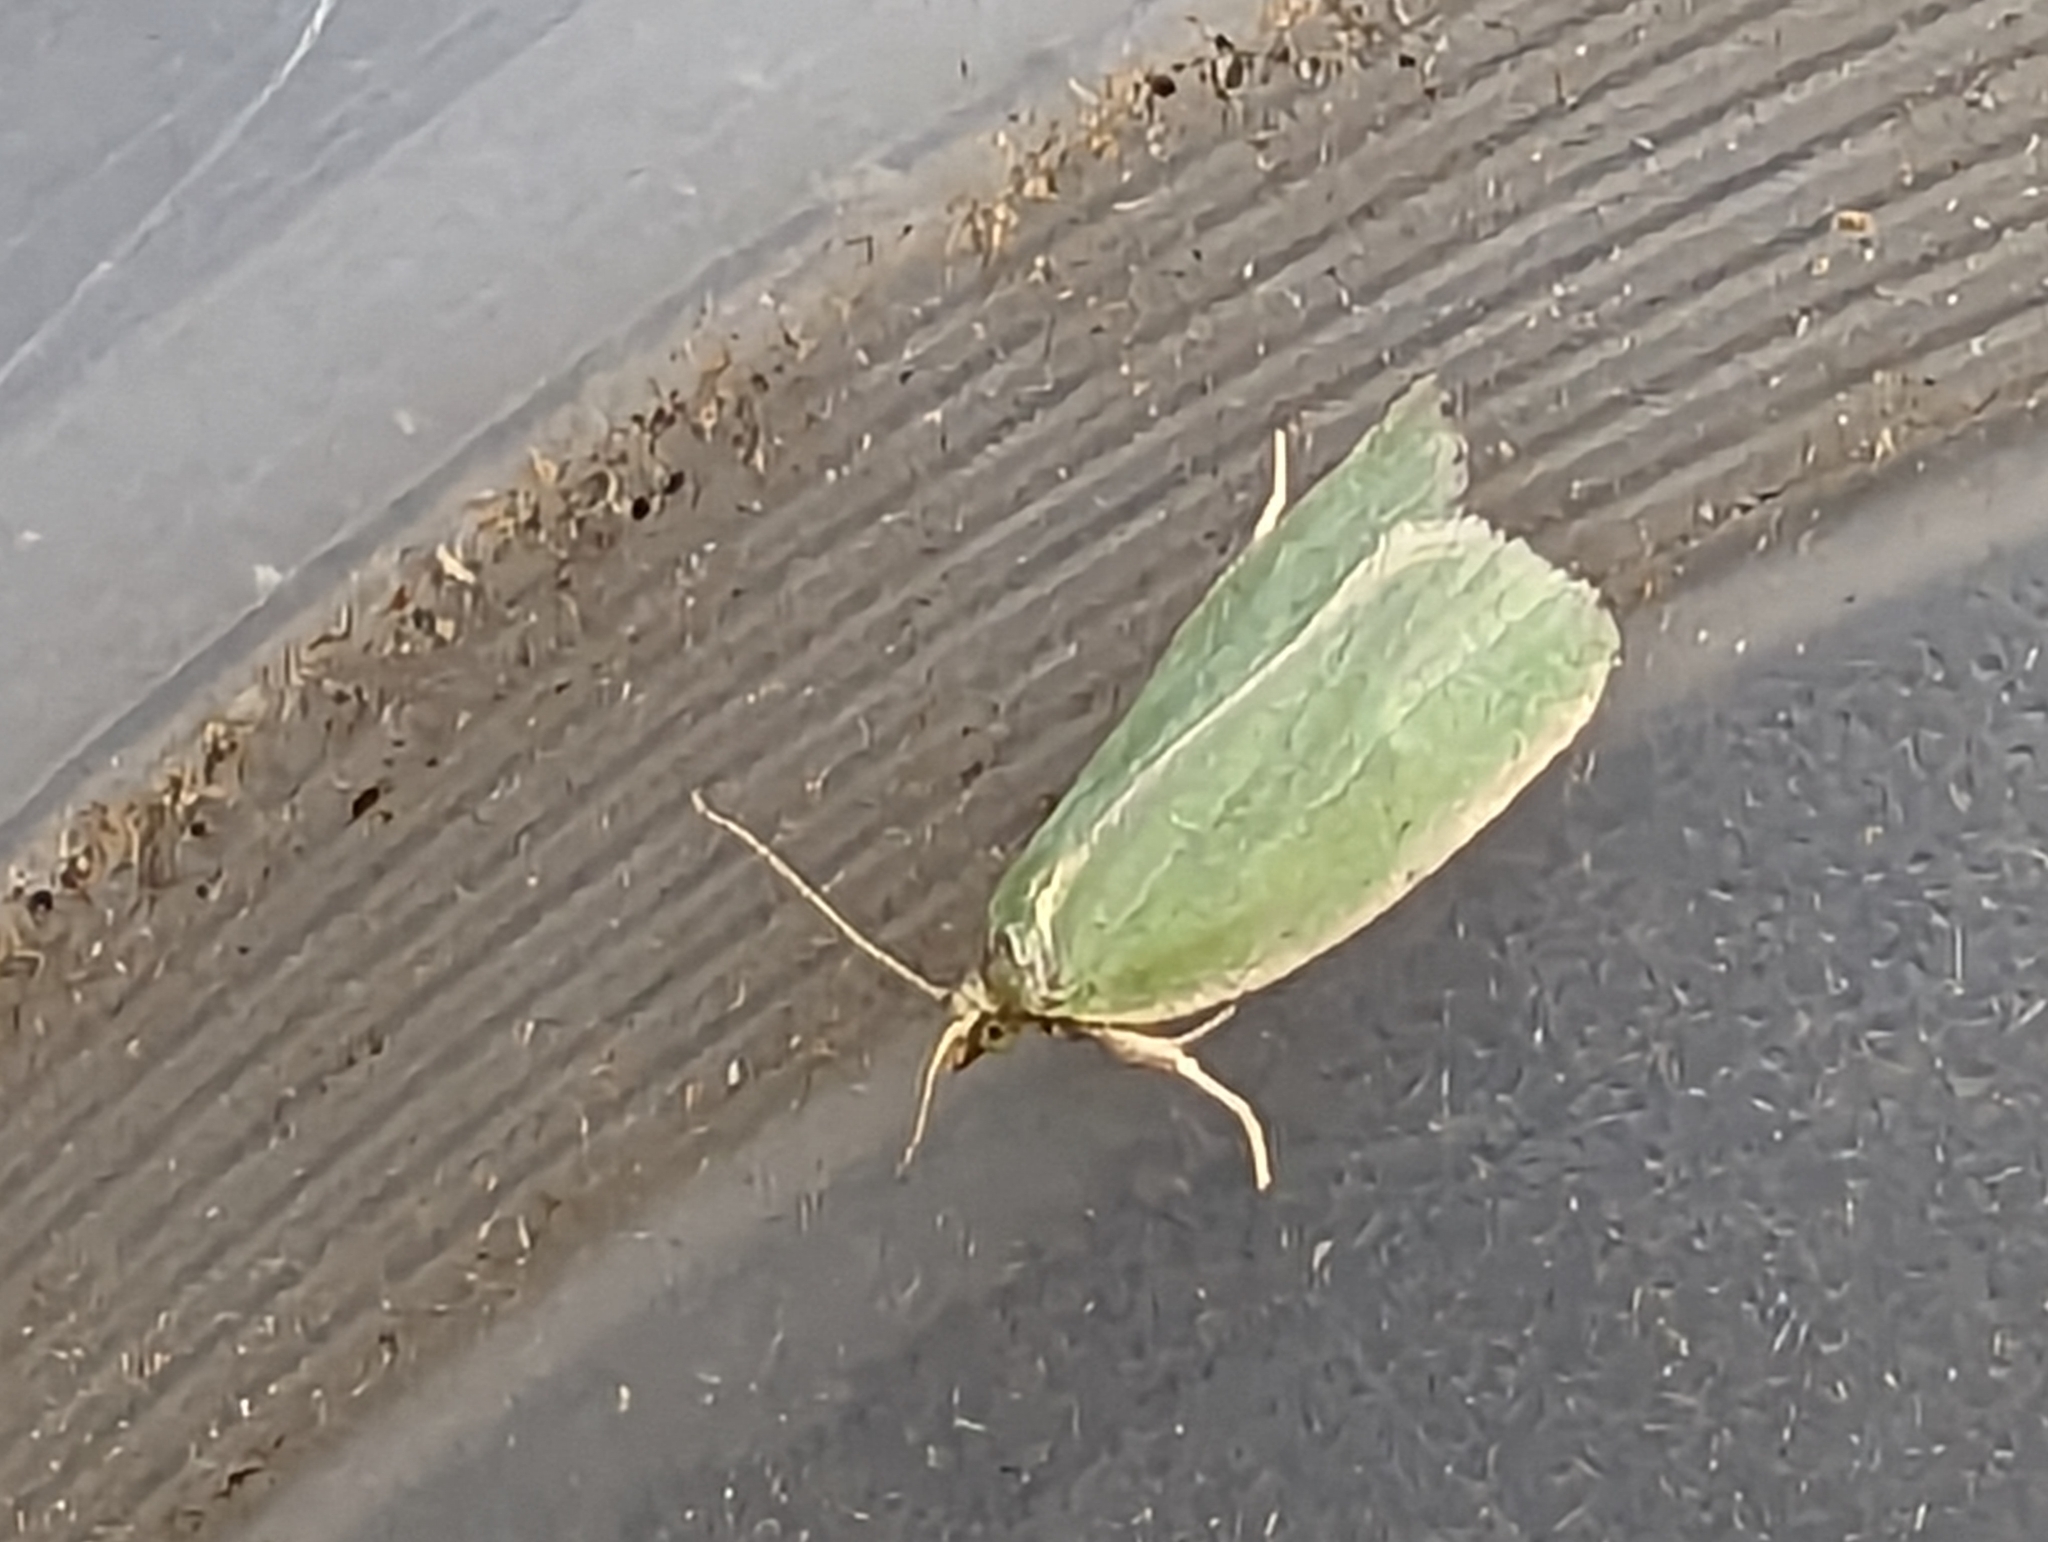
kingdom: Animalia
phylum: Arthropoda
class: Insecta
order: Lepidoptera
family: Tortricidae
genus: Tortrix
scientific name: Tortrix viridana
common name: Green oak tortrix
